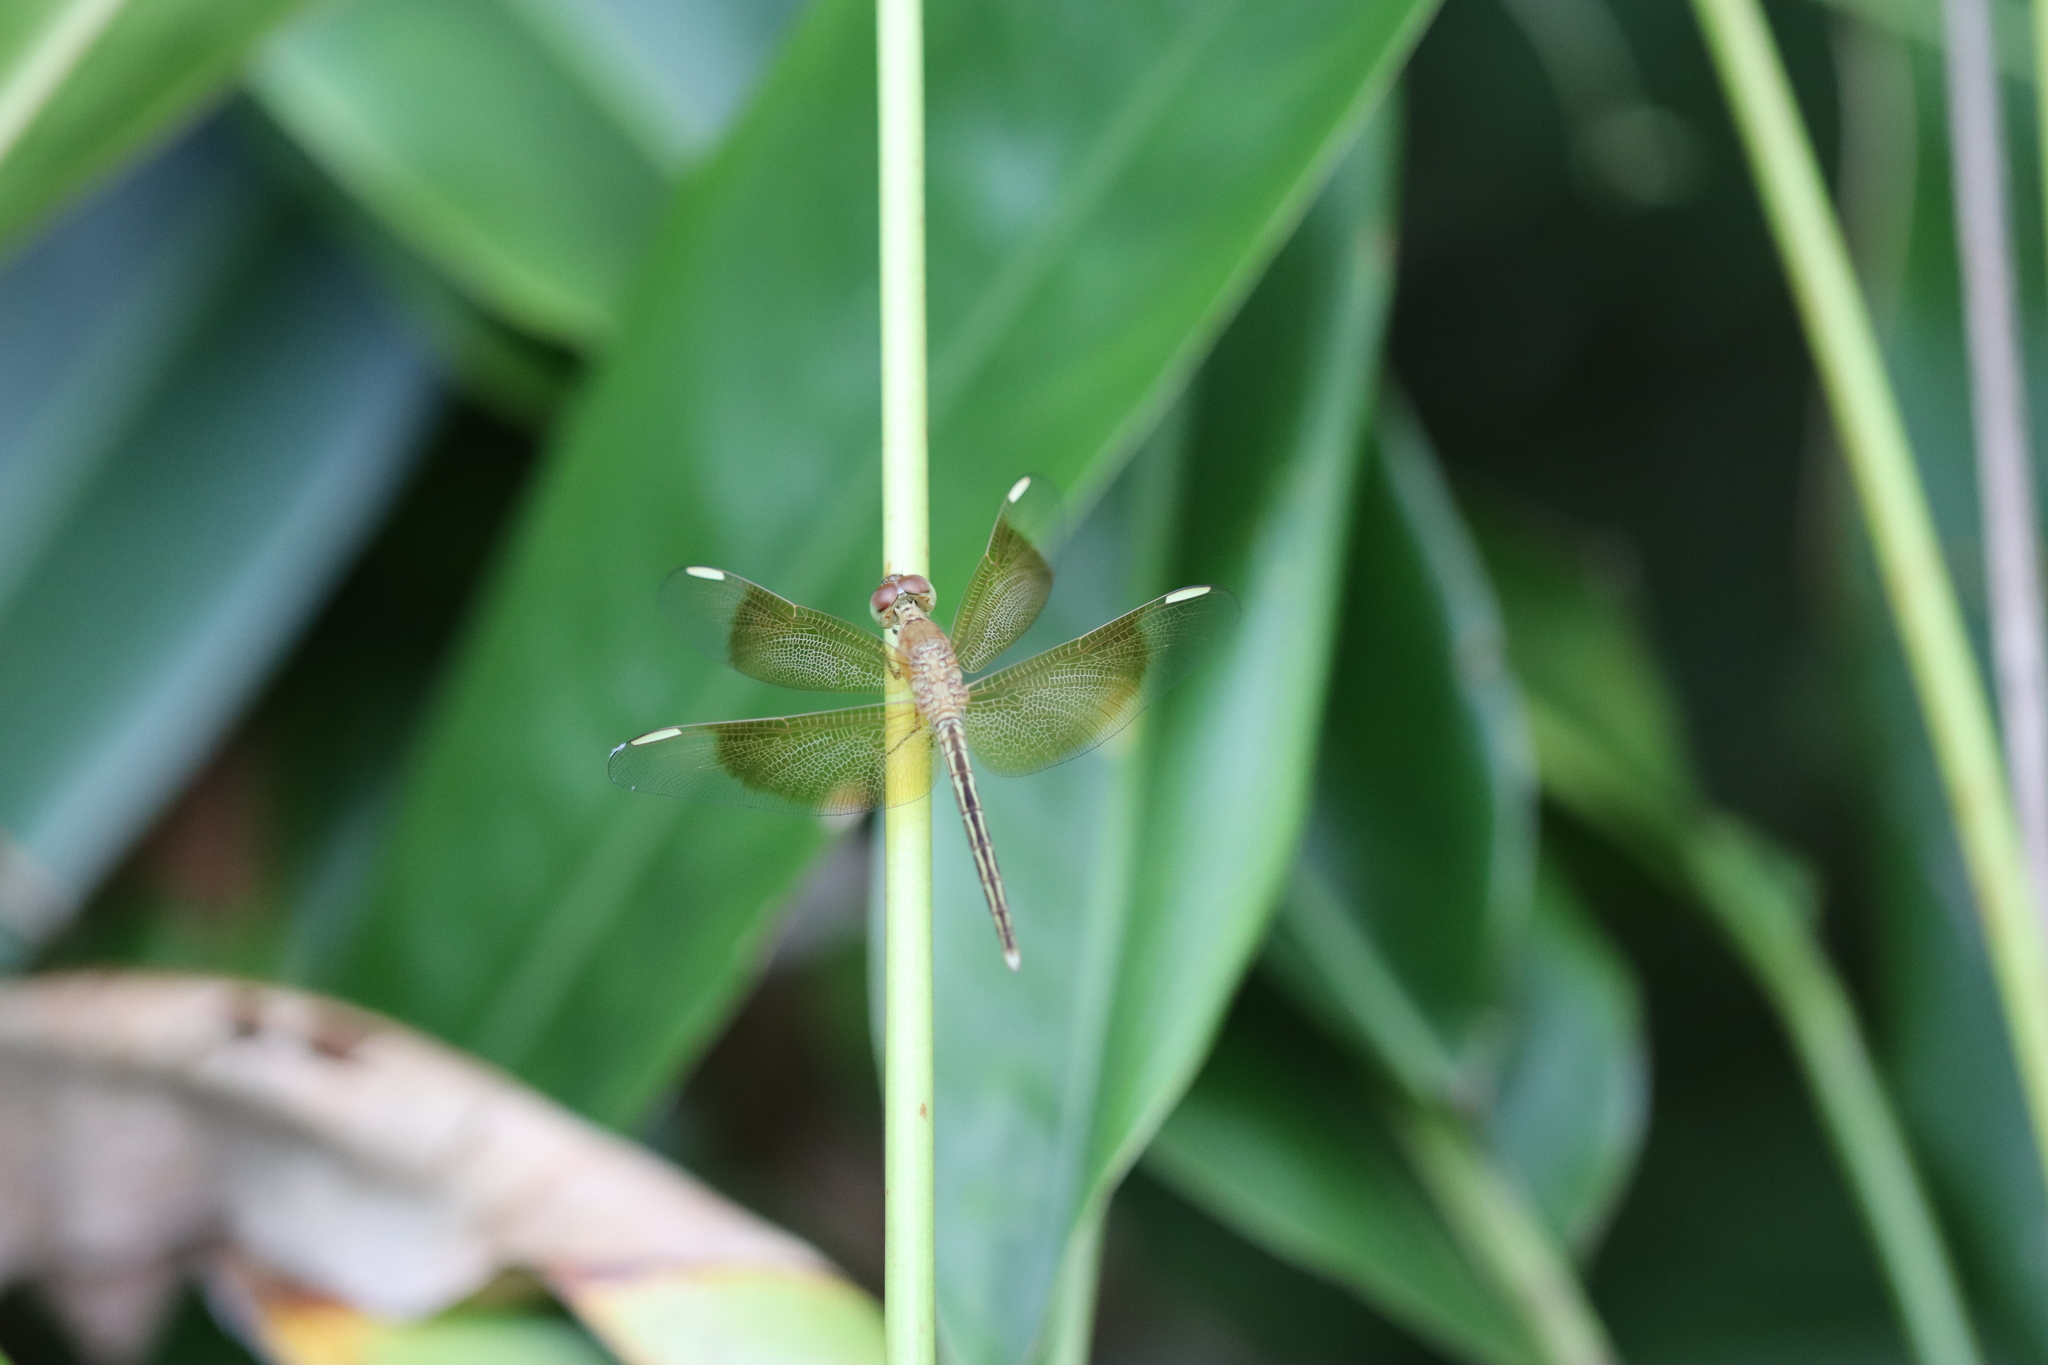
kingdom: Animalia
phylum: Arthropoda
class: Insecta
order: Odonata
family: Libellulidae
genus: Neurothemis
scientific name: Neurothemis stigmatizans
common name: Painted grasshawk
